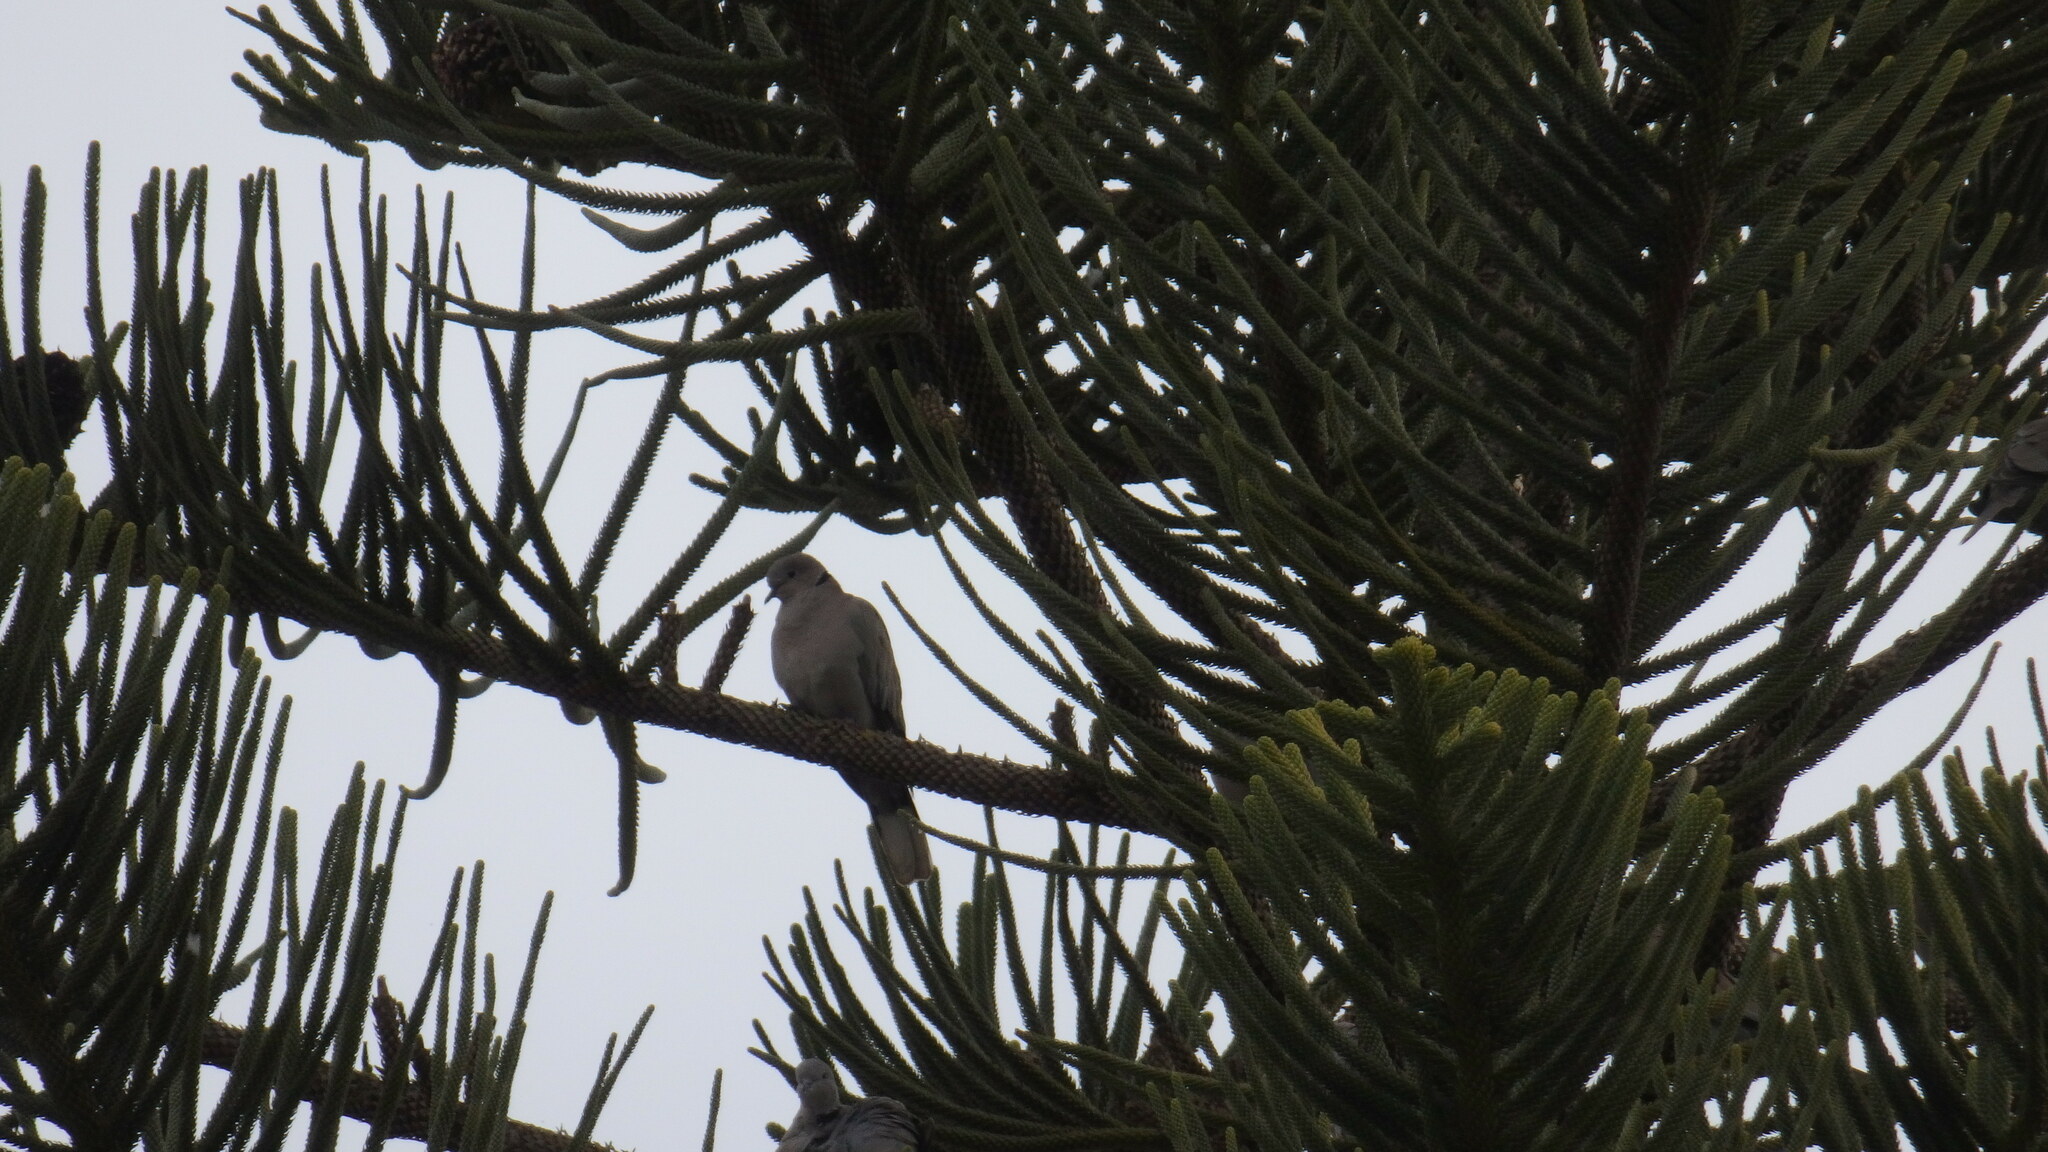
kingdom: Animalia
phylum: Chordata
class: Aves
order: Columbiformes
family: Columbidae
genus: Streptopelia
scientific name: Streptopelia decaocto
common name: Eurasian collared dove
